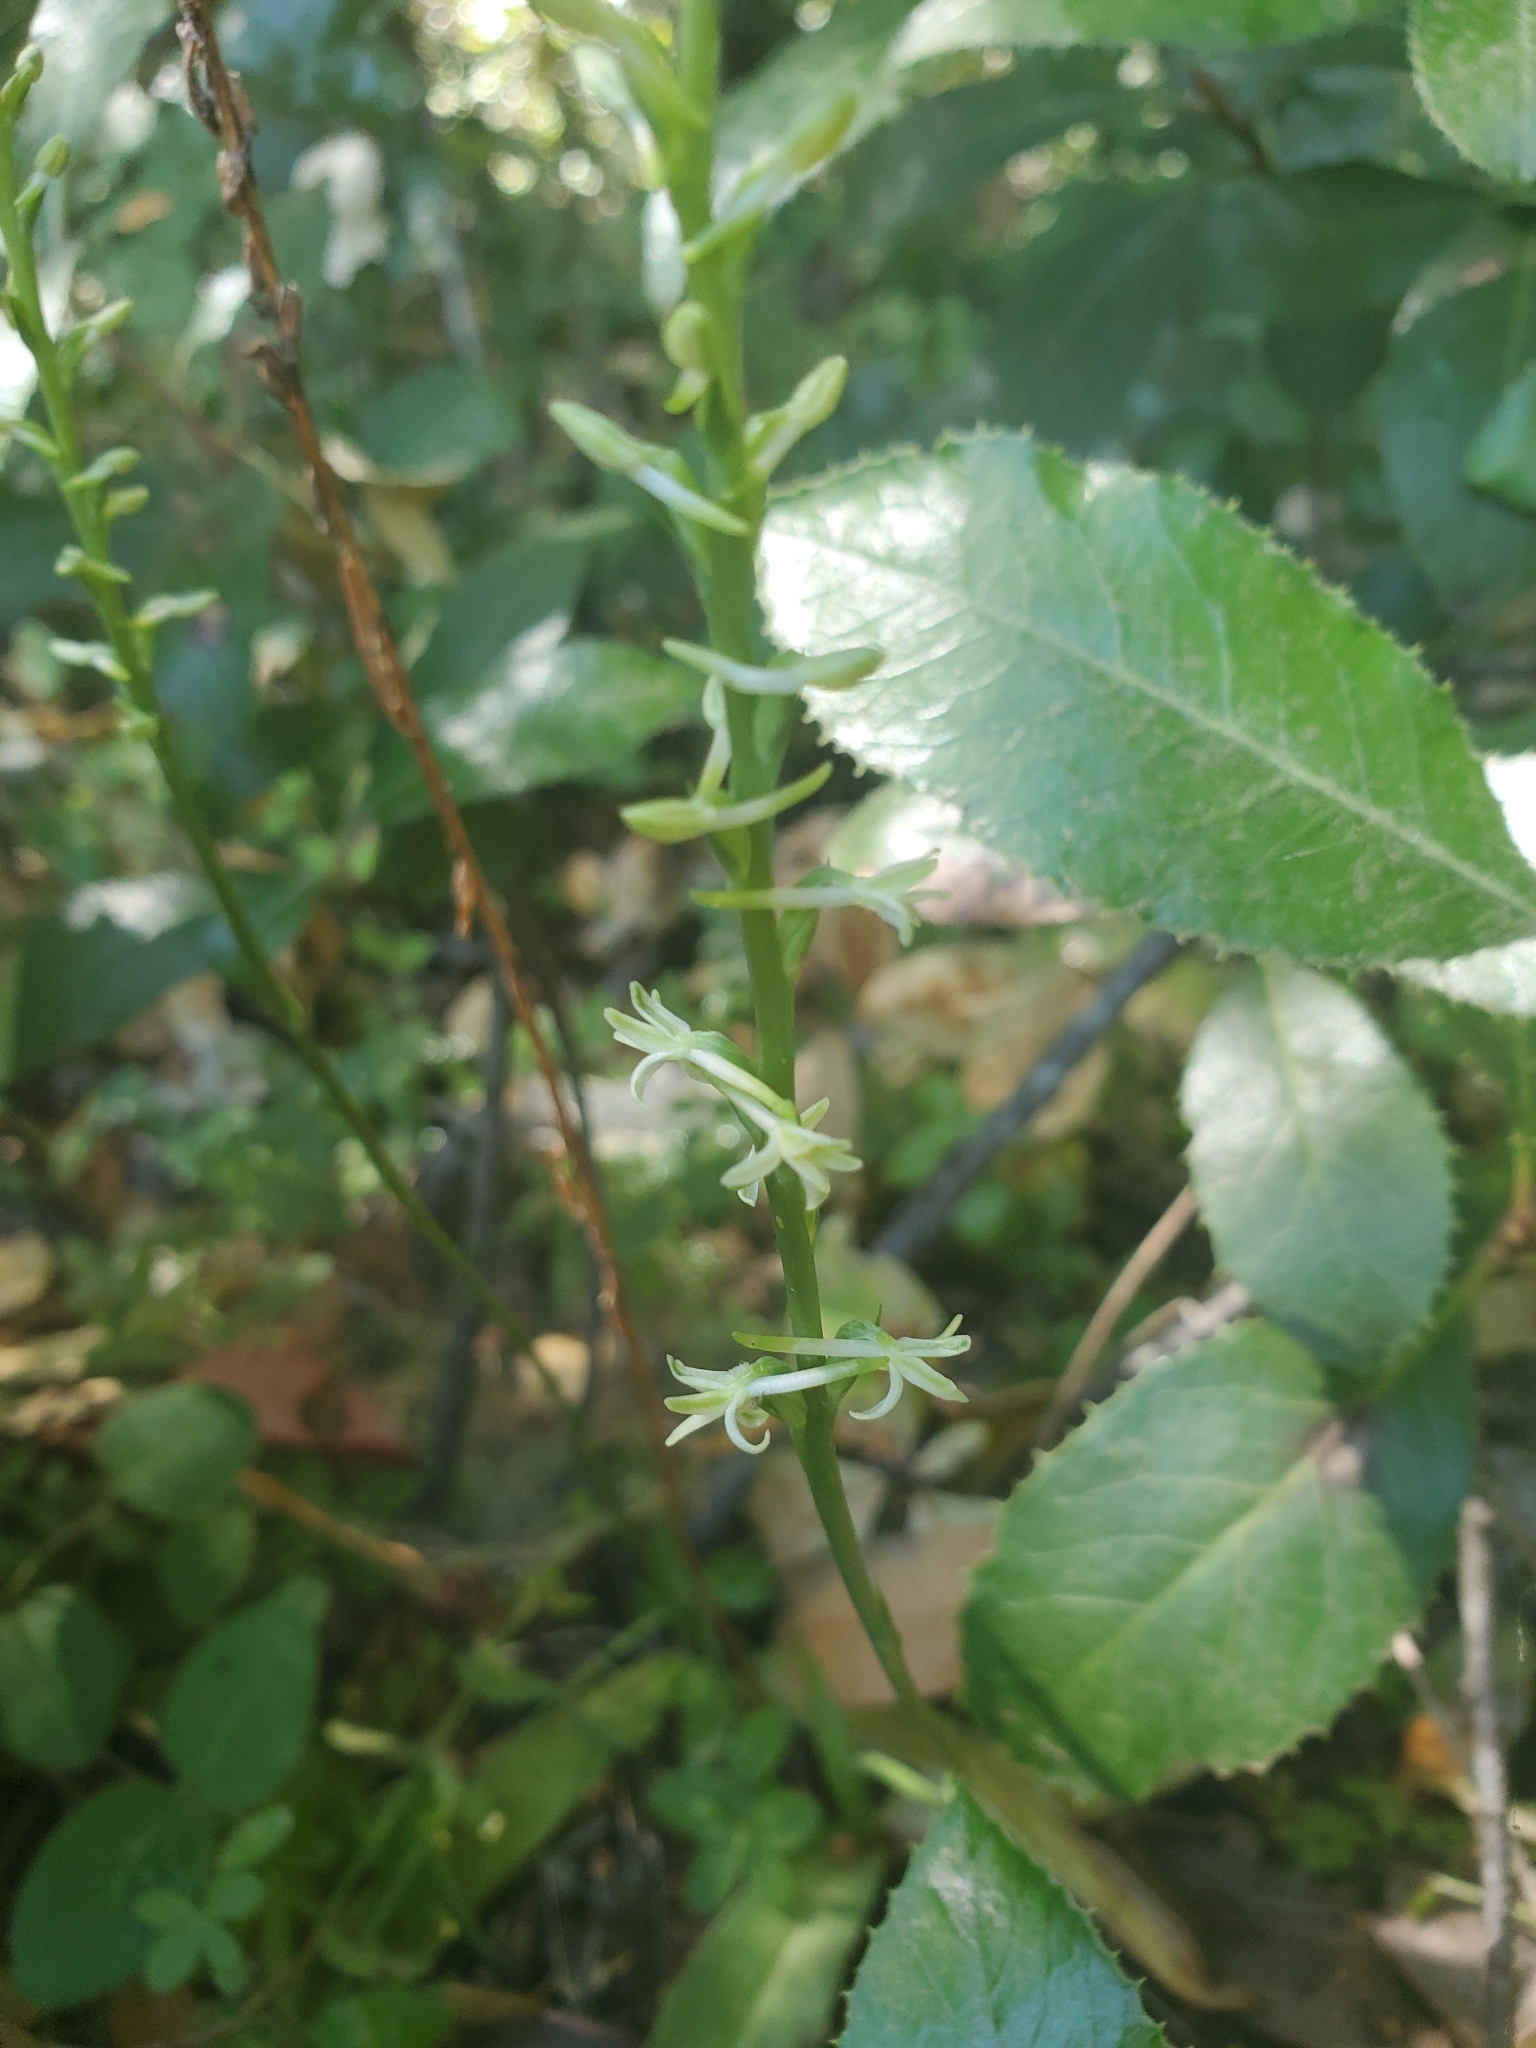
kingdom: Plantae
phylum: Tracheophyta
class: Liliopsida
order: Asparagales
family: Orchidaceae
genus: Platanthera
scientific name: Platanthera transversa
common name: Royal rein orchid
